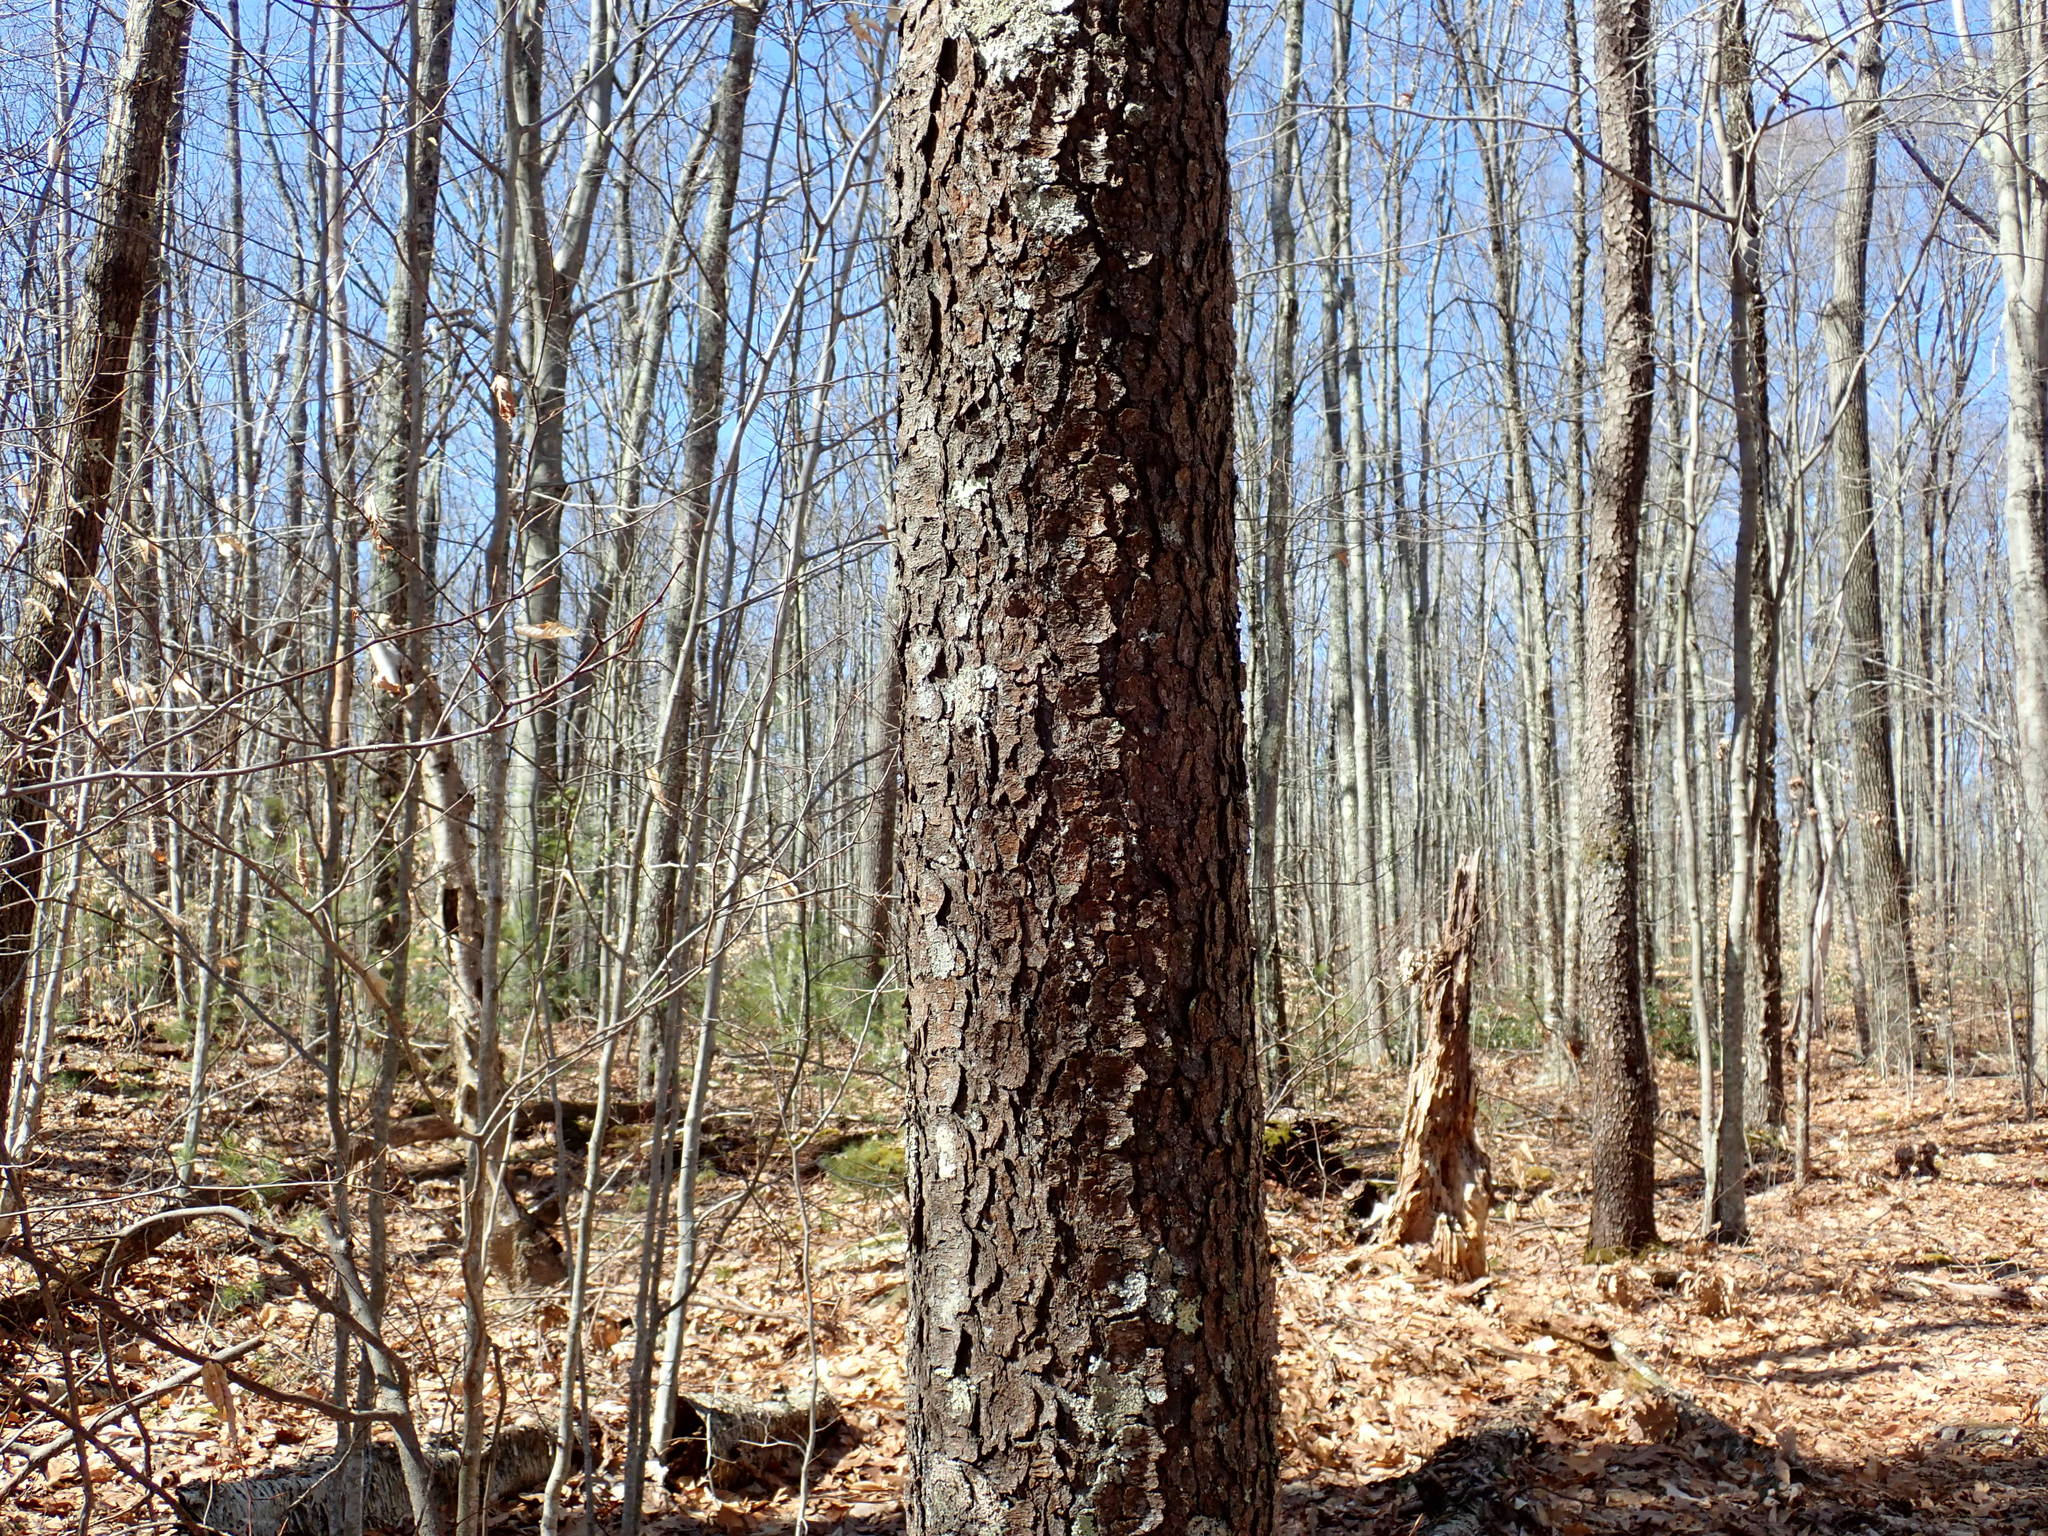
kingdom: Plantae
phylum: Tracheophyta
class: Magnoliopsida
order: Rosales
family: Rosaceae
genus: Prunus
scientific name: Prunus serotina
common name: Black cherry
